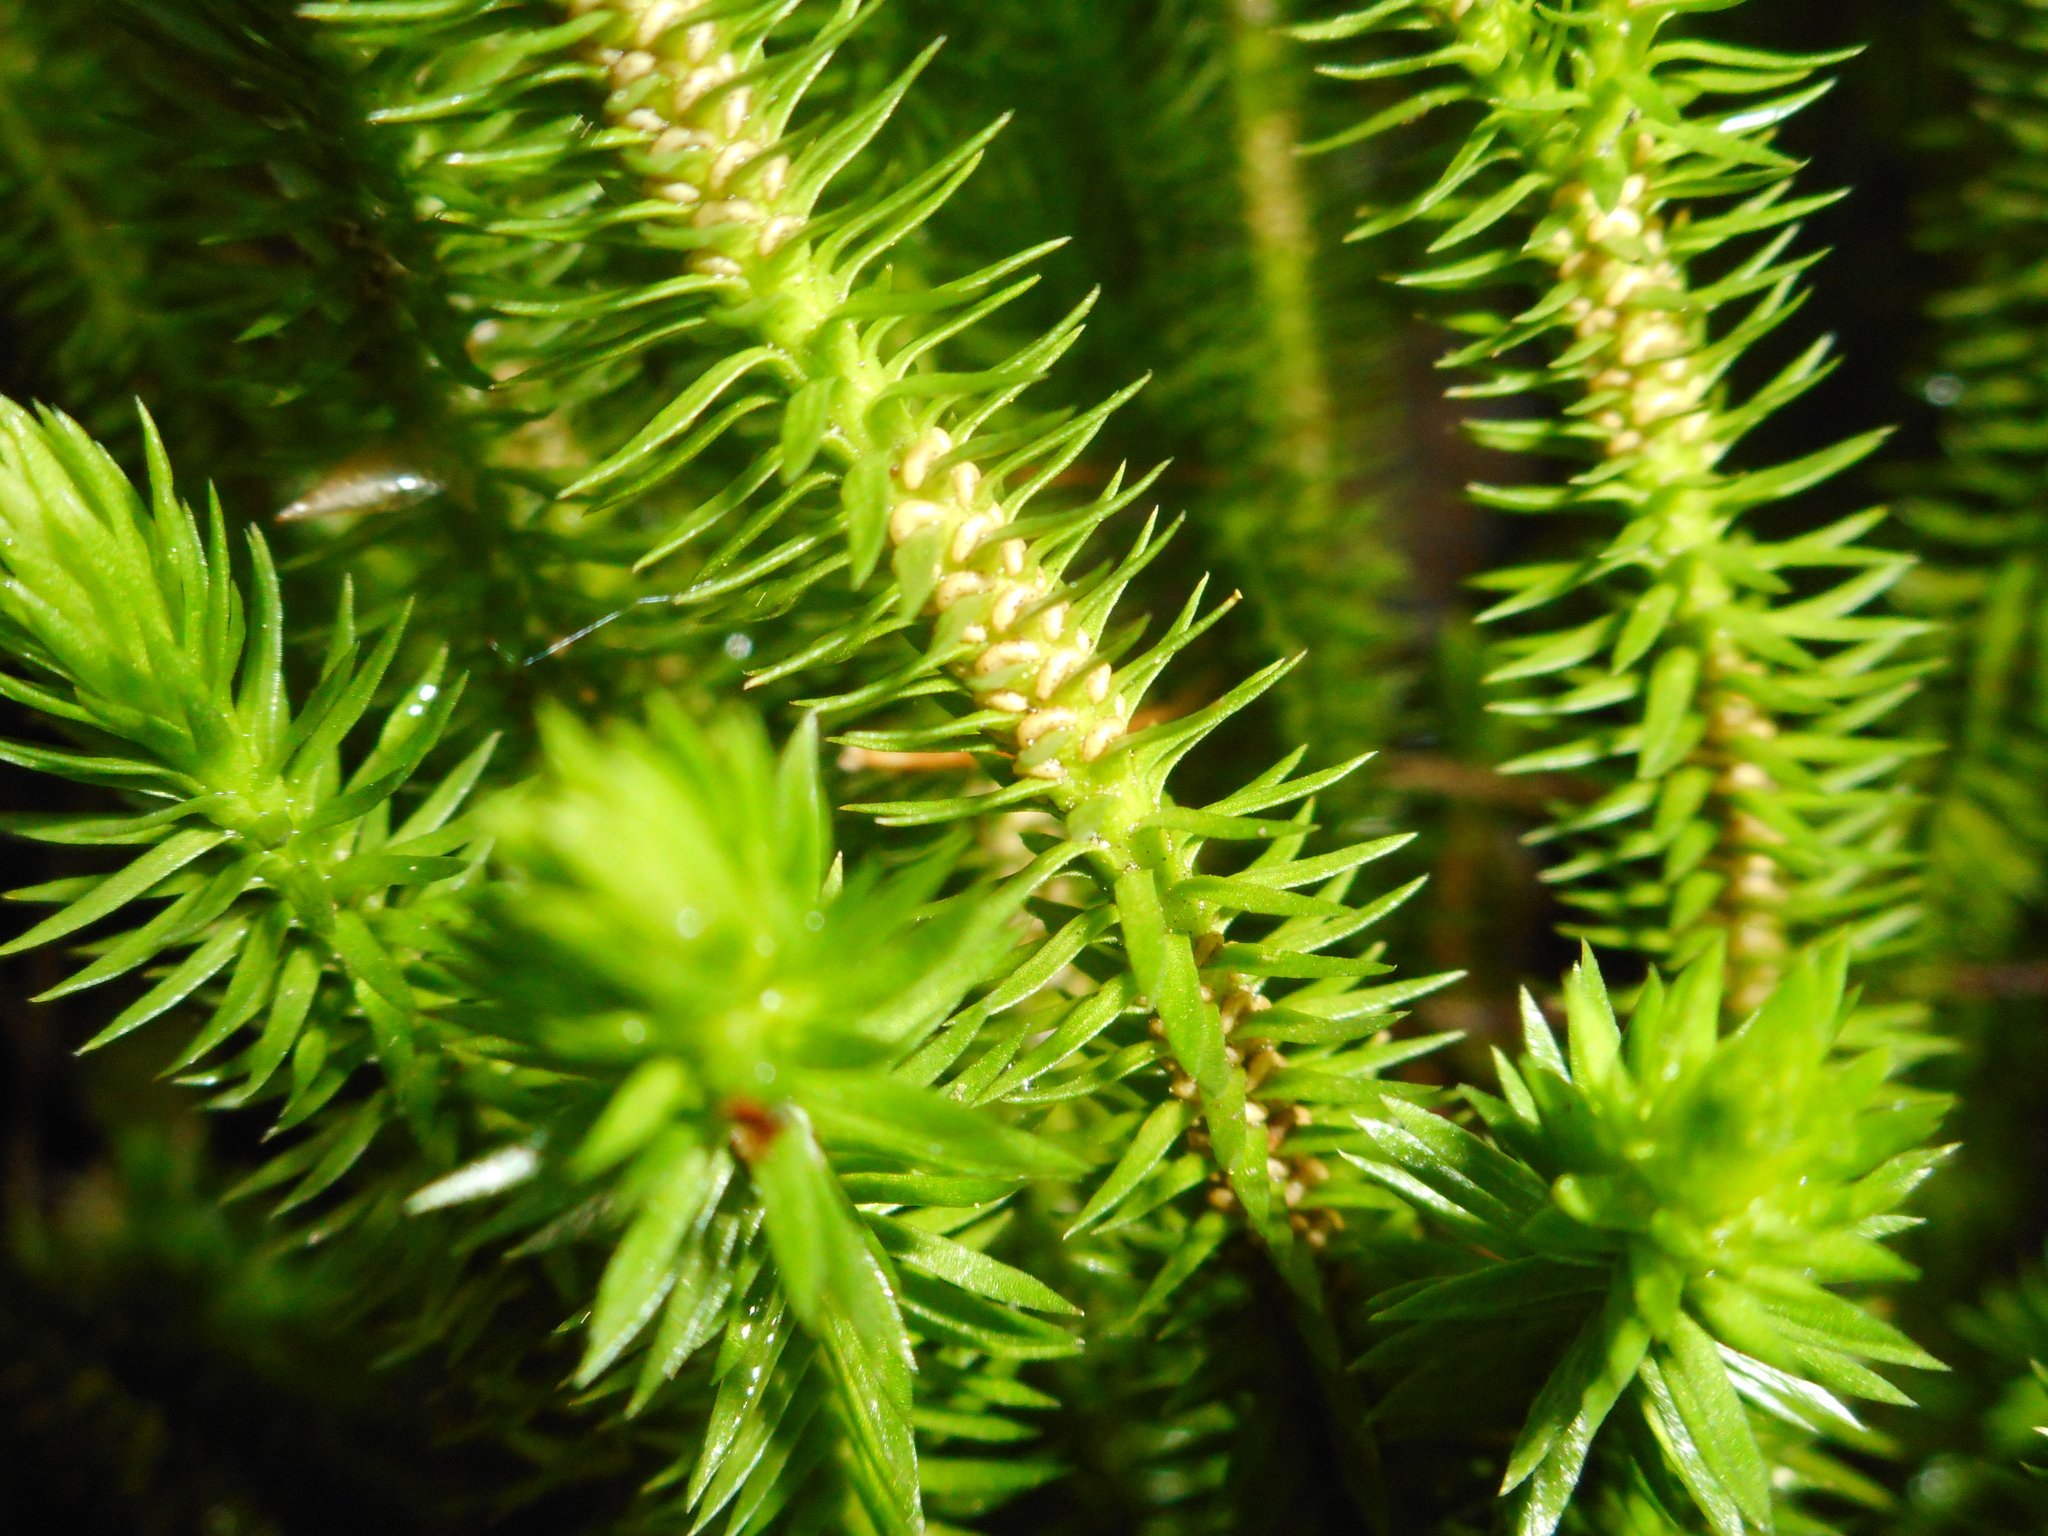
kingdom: Plantae
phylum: Tracheophyta
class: Lycopodiopsida
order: Lycopodiales
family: Lycopodiaceae
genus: Huperzia
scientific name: Huperzia selago
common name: Northern firmoss
